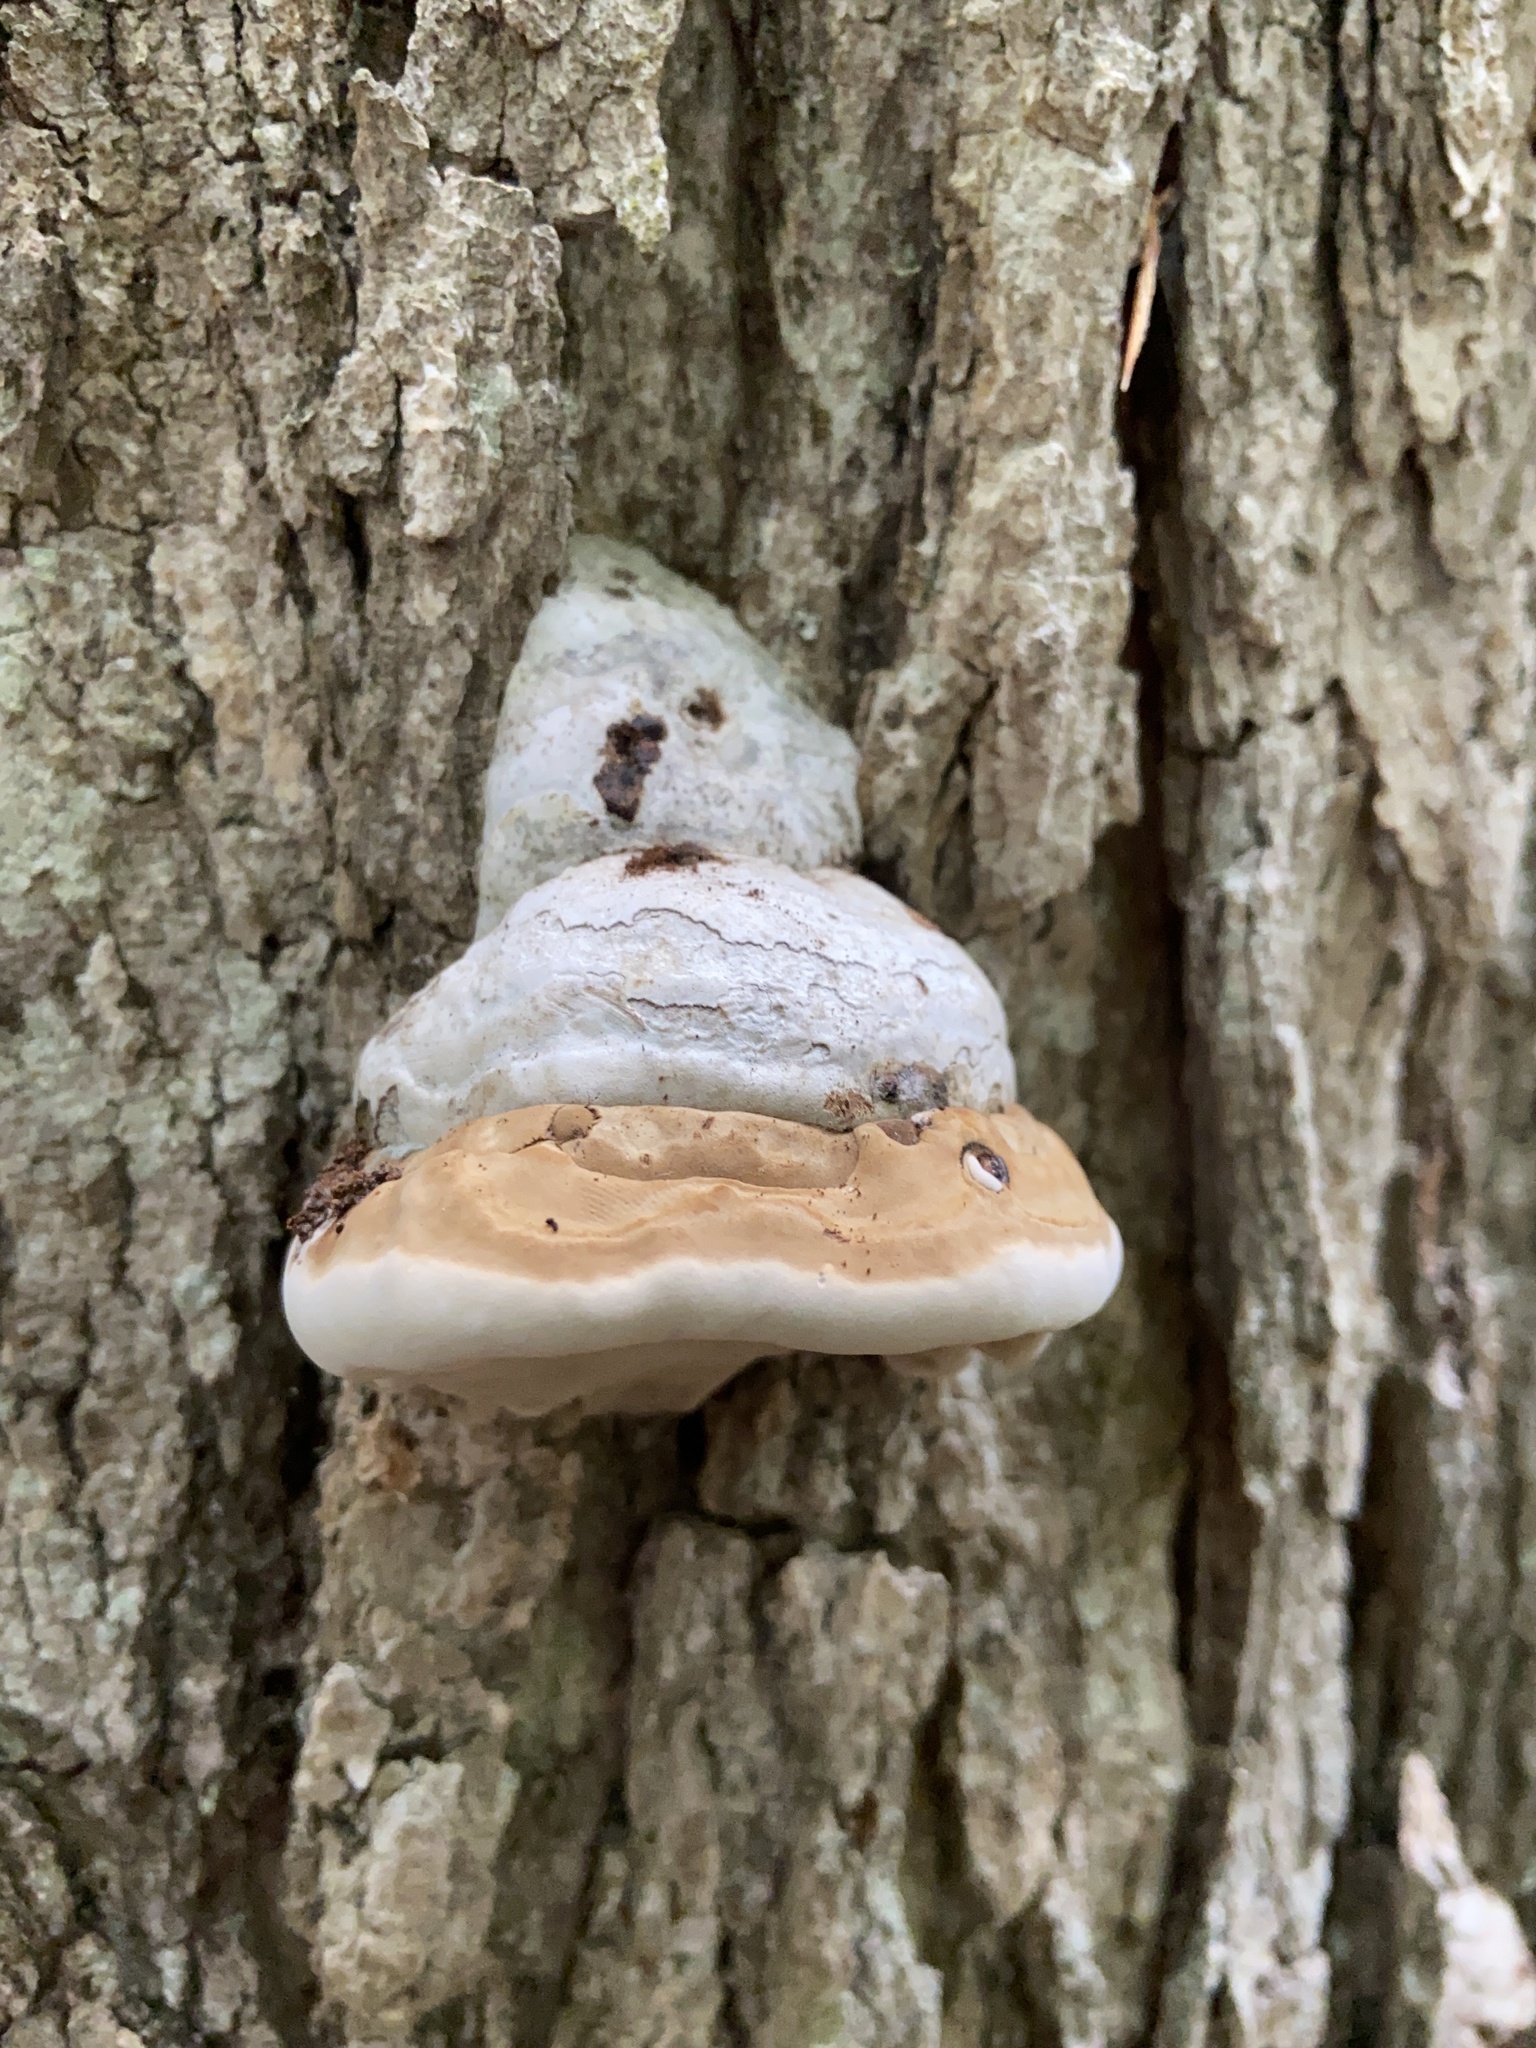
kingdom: Fungi
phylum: Basidiomycota
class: Agaricomycetes
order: Polyporales
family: Polyporaceae
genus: Fomes
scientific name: Fomes fomentarius
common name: Hoof fungus
